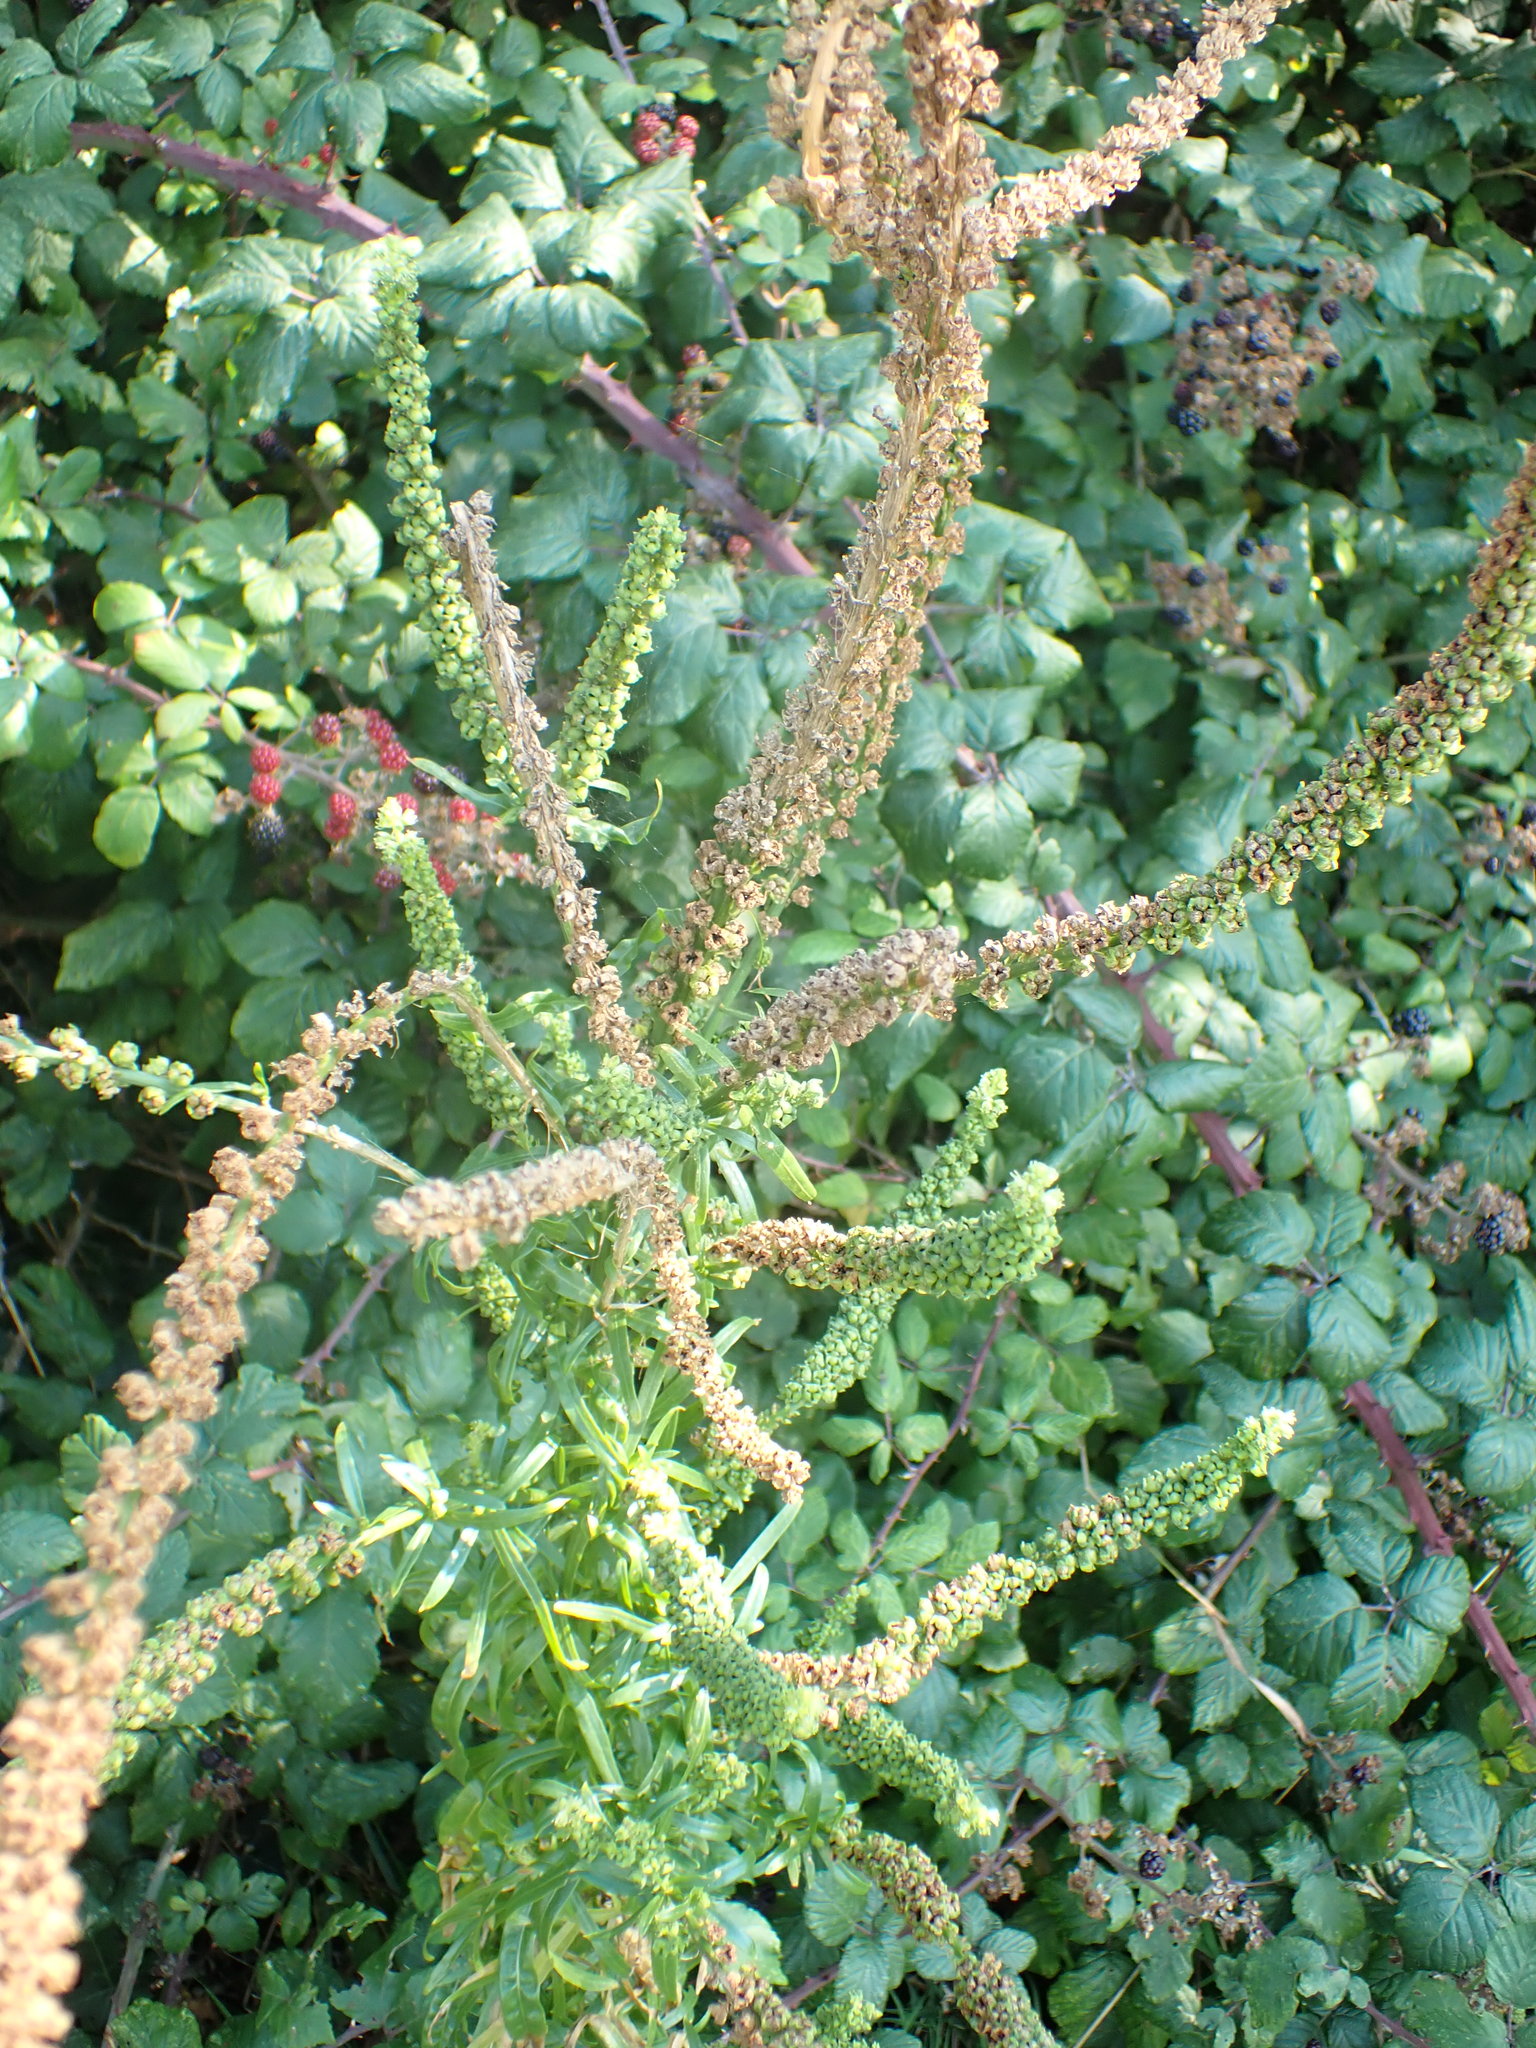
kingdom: Plantae
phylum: Tracheophyta
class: Magnoliopsida
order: Brassicales
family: Resedaceae
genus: Reseda
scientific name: Reseda luteola
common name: Weld
